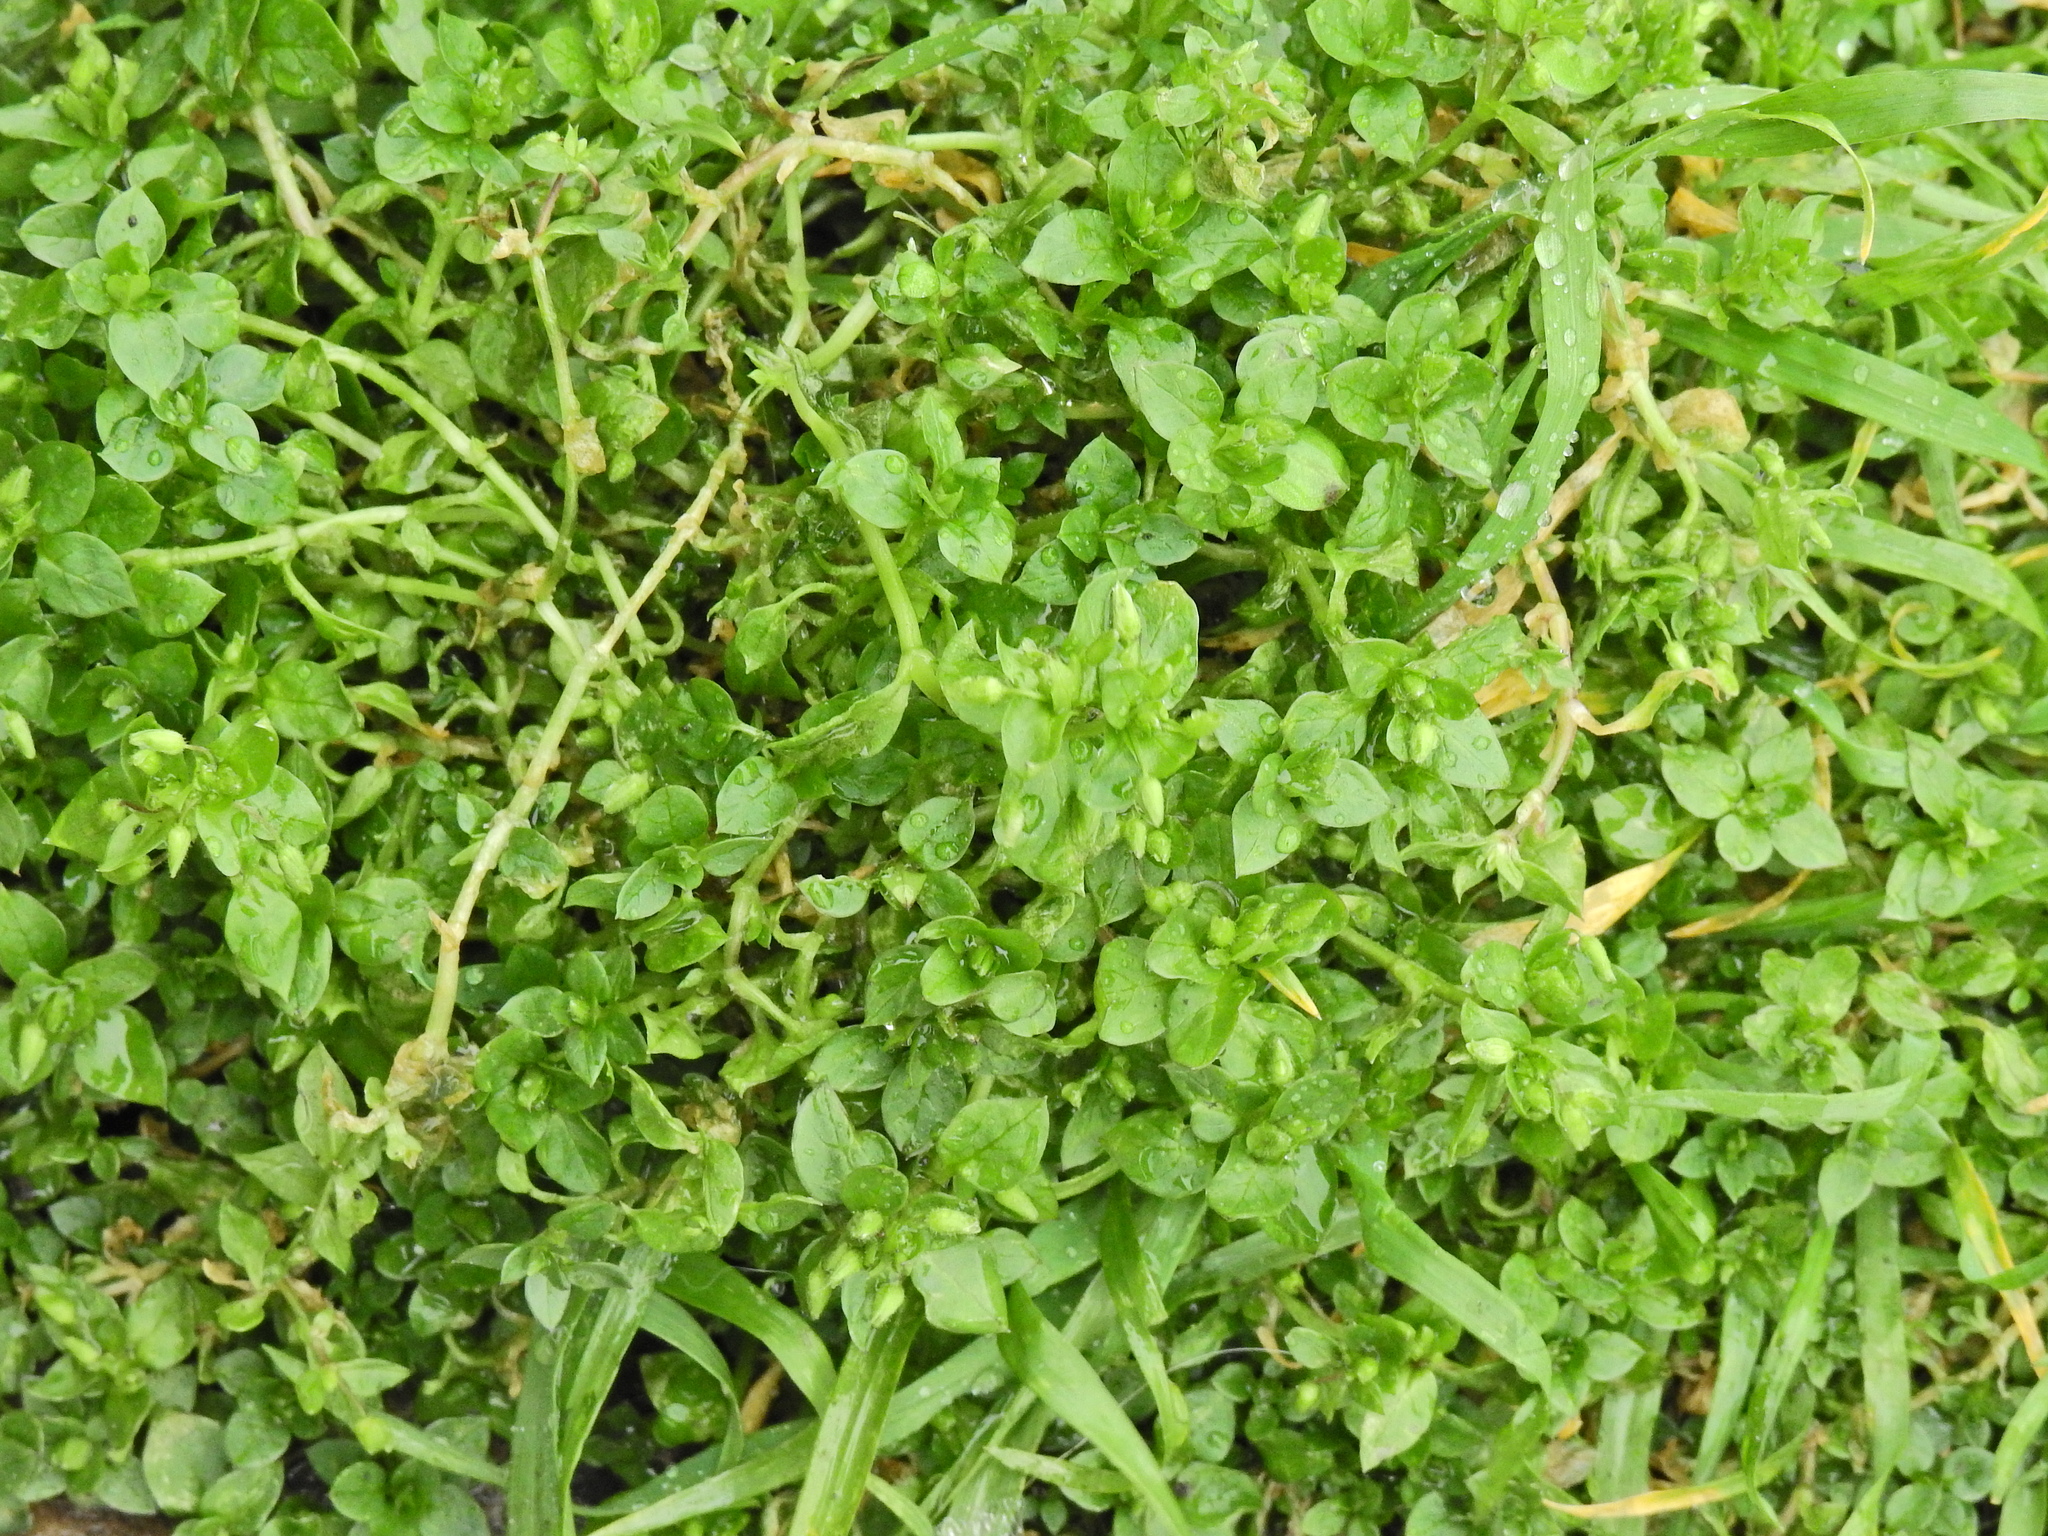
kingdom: Plantae
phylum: Tracheophyta
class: Magnoliopsida
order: Caryophyllales
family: Caryophyllaceae
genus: Stellaria
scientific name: Stellaria media
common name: Common chickweed
